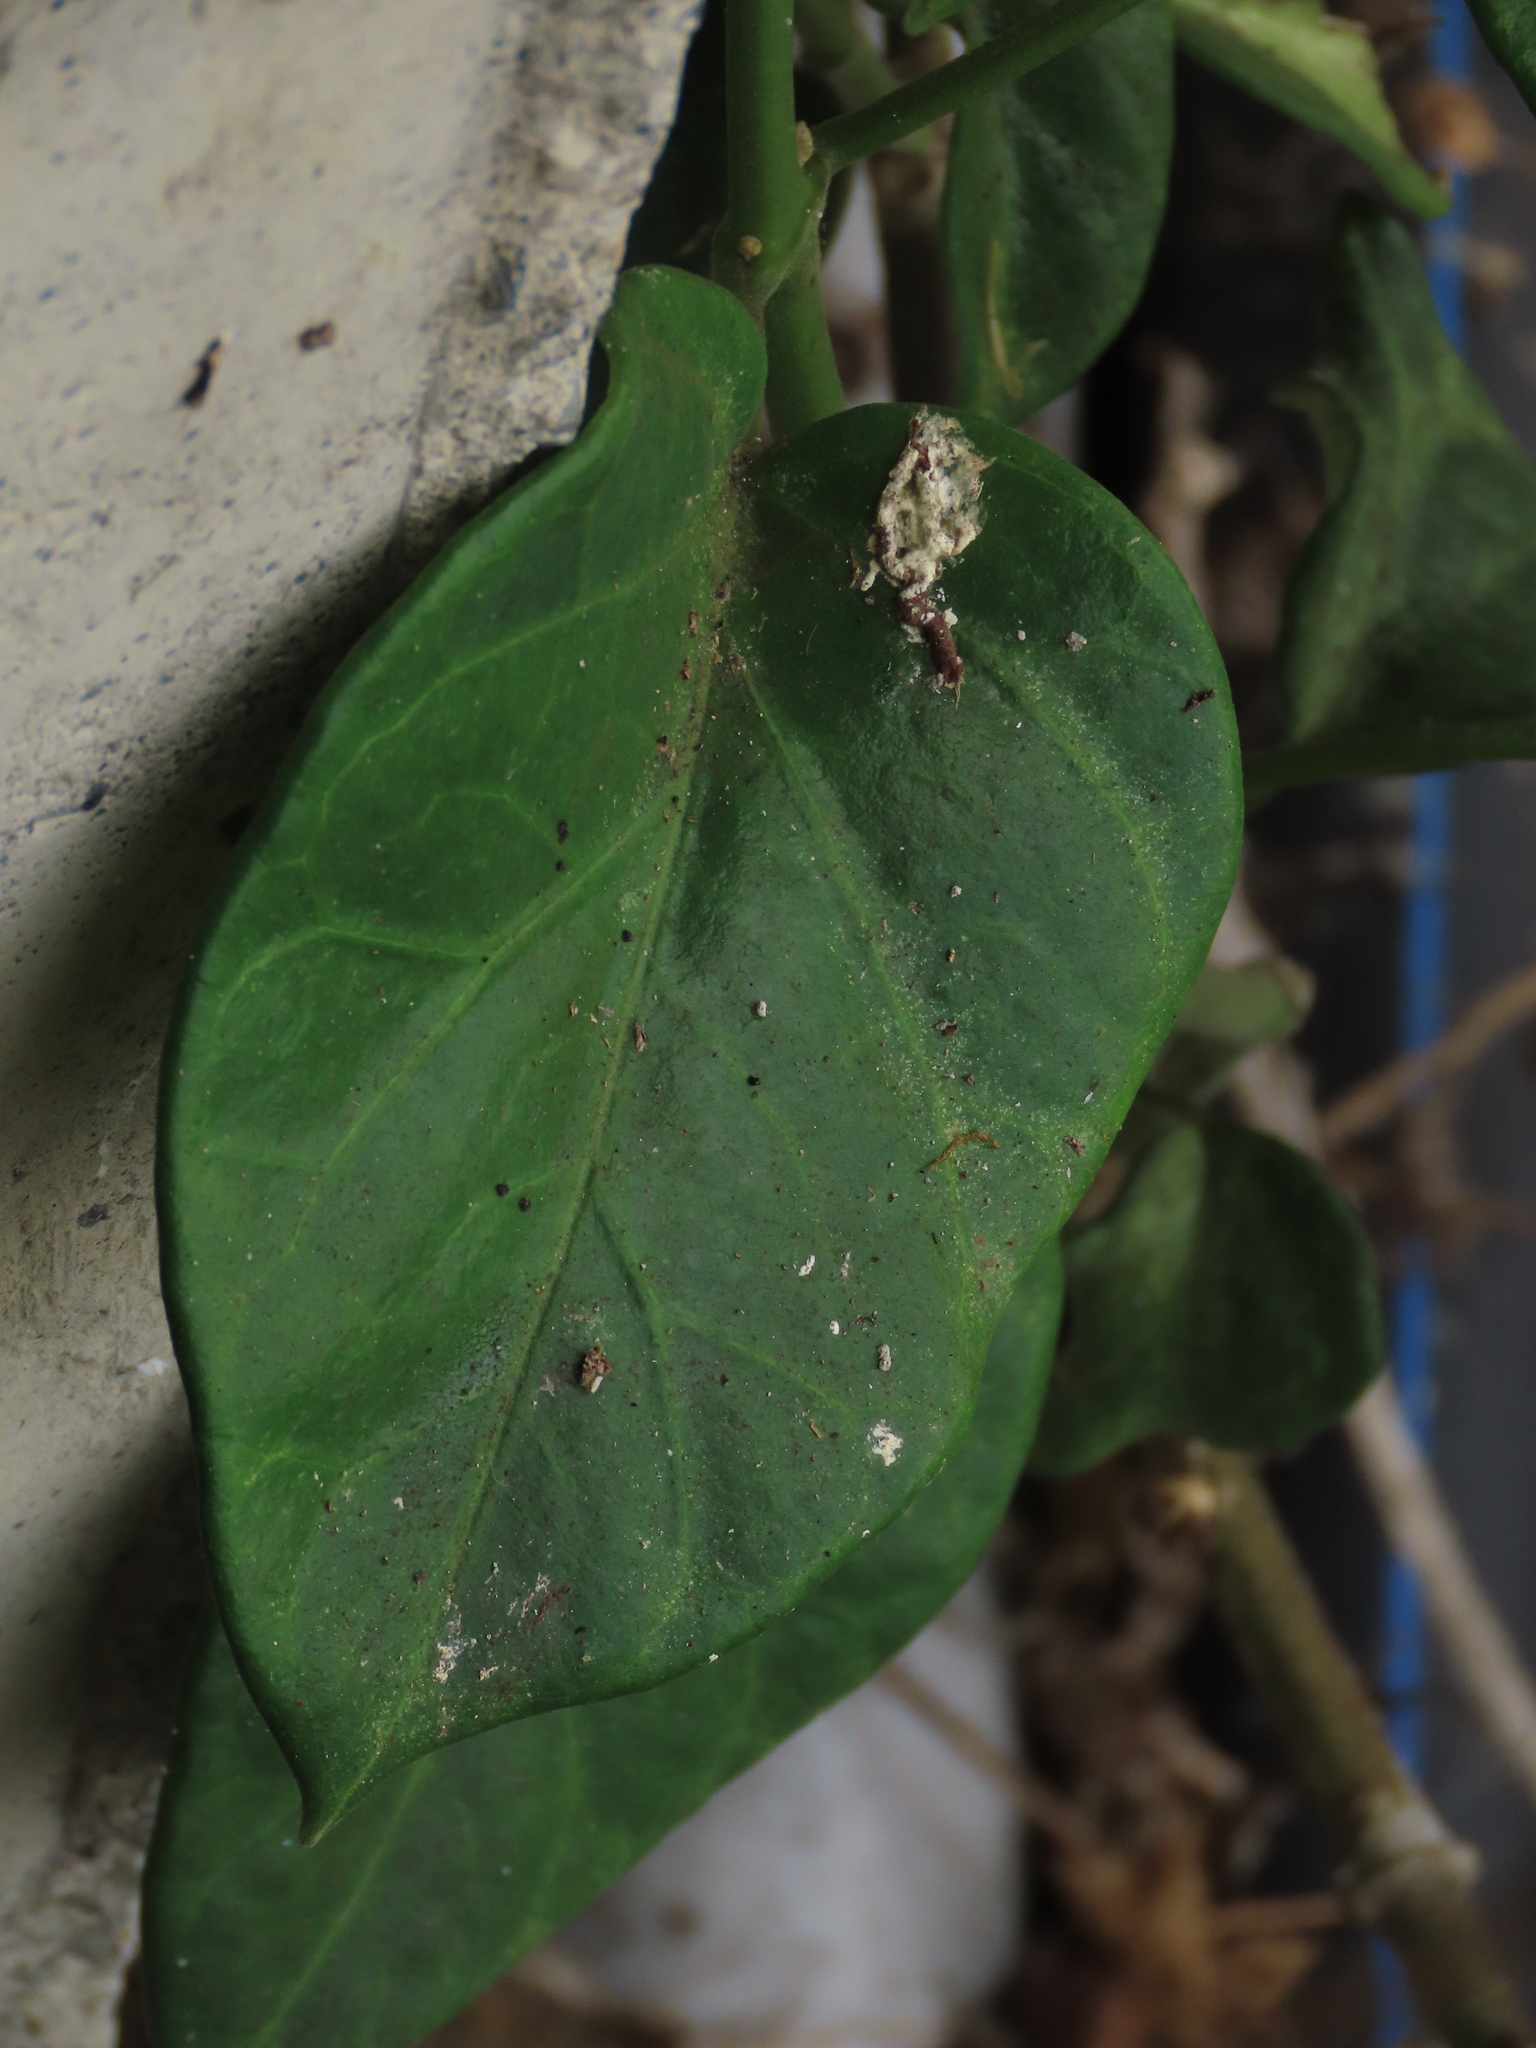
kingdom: Plantae
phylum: Tracheophyta
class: Magnoliopsida
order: Gentianales
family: Apocynaceae
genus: Sinomarsdenia
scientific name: Sinomarsdenia formosana
